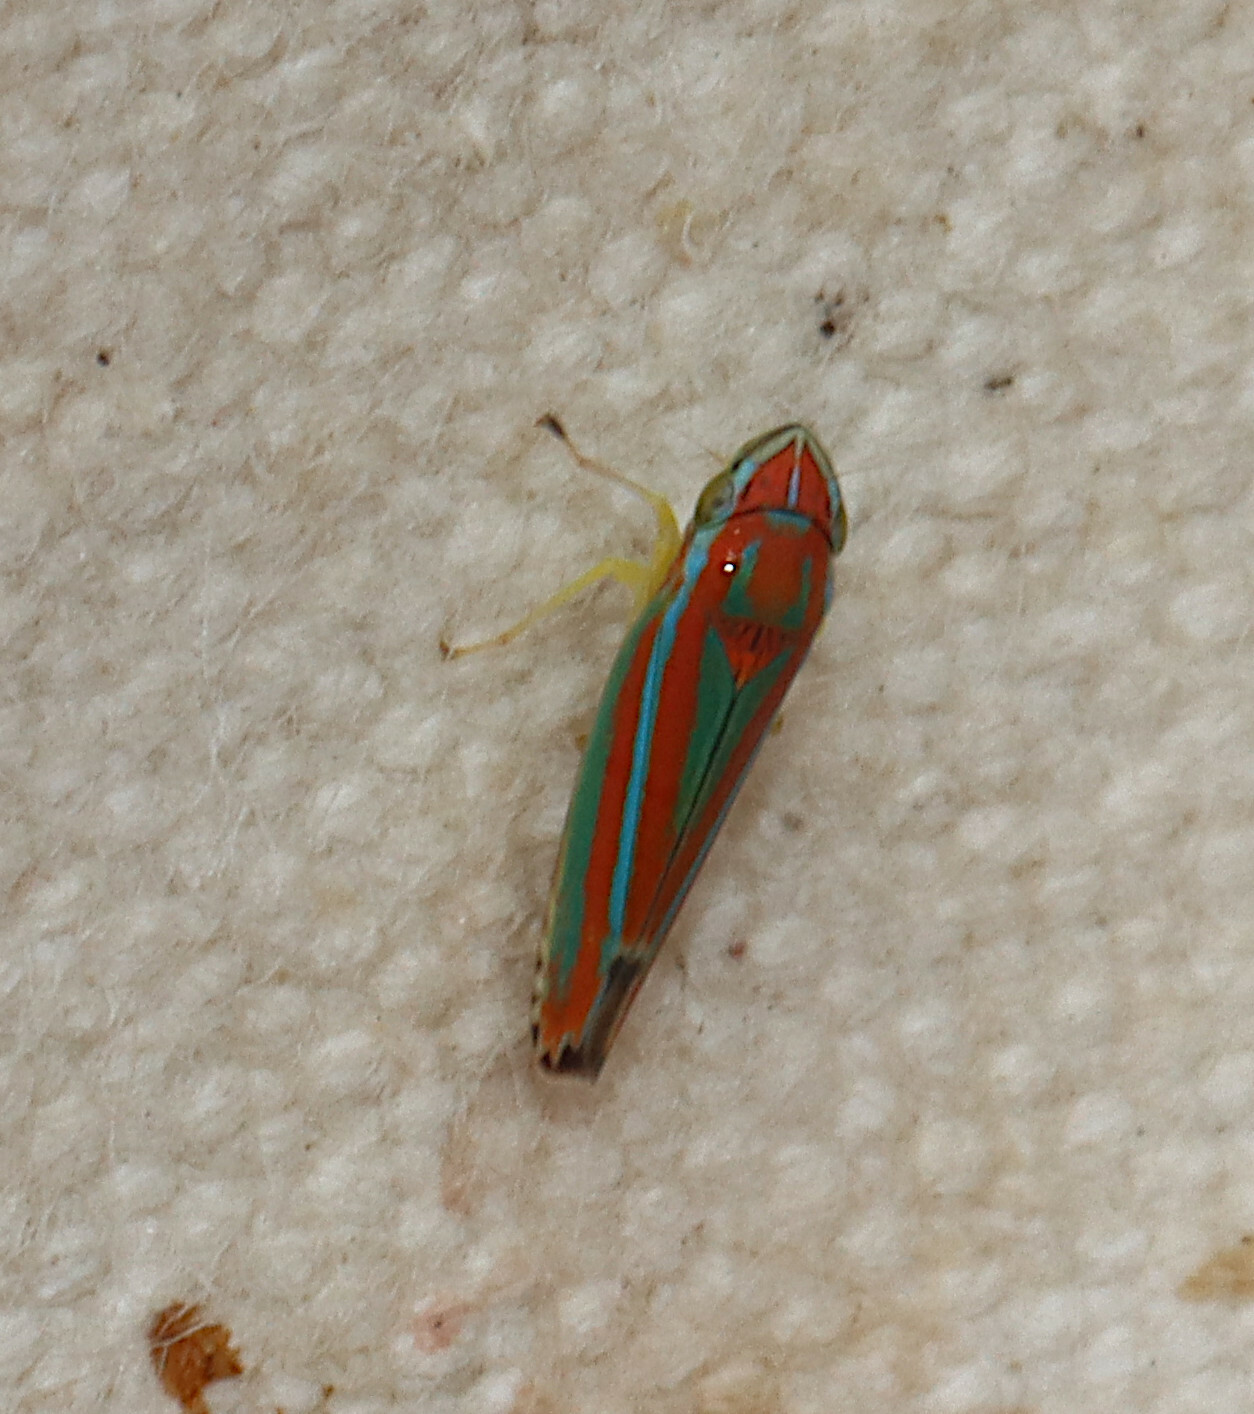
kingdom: Animalia
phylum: Arthropoda
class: Insecta
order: Hemiptera
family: Cicadellidae
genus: Graphocephala
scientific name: Graphocephala versuta
